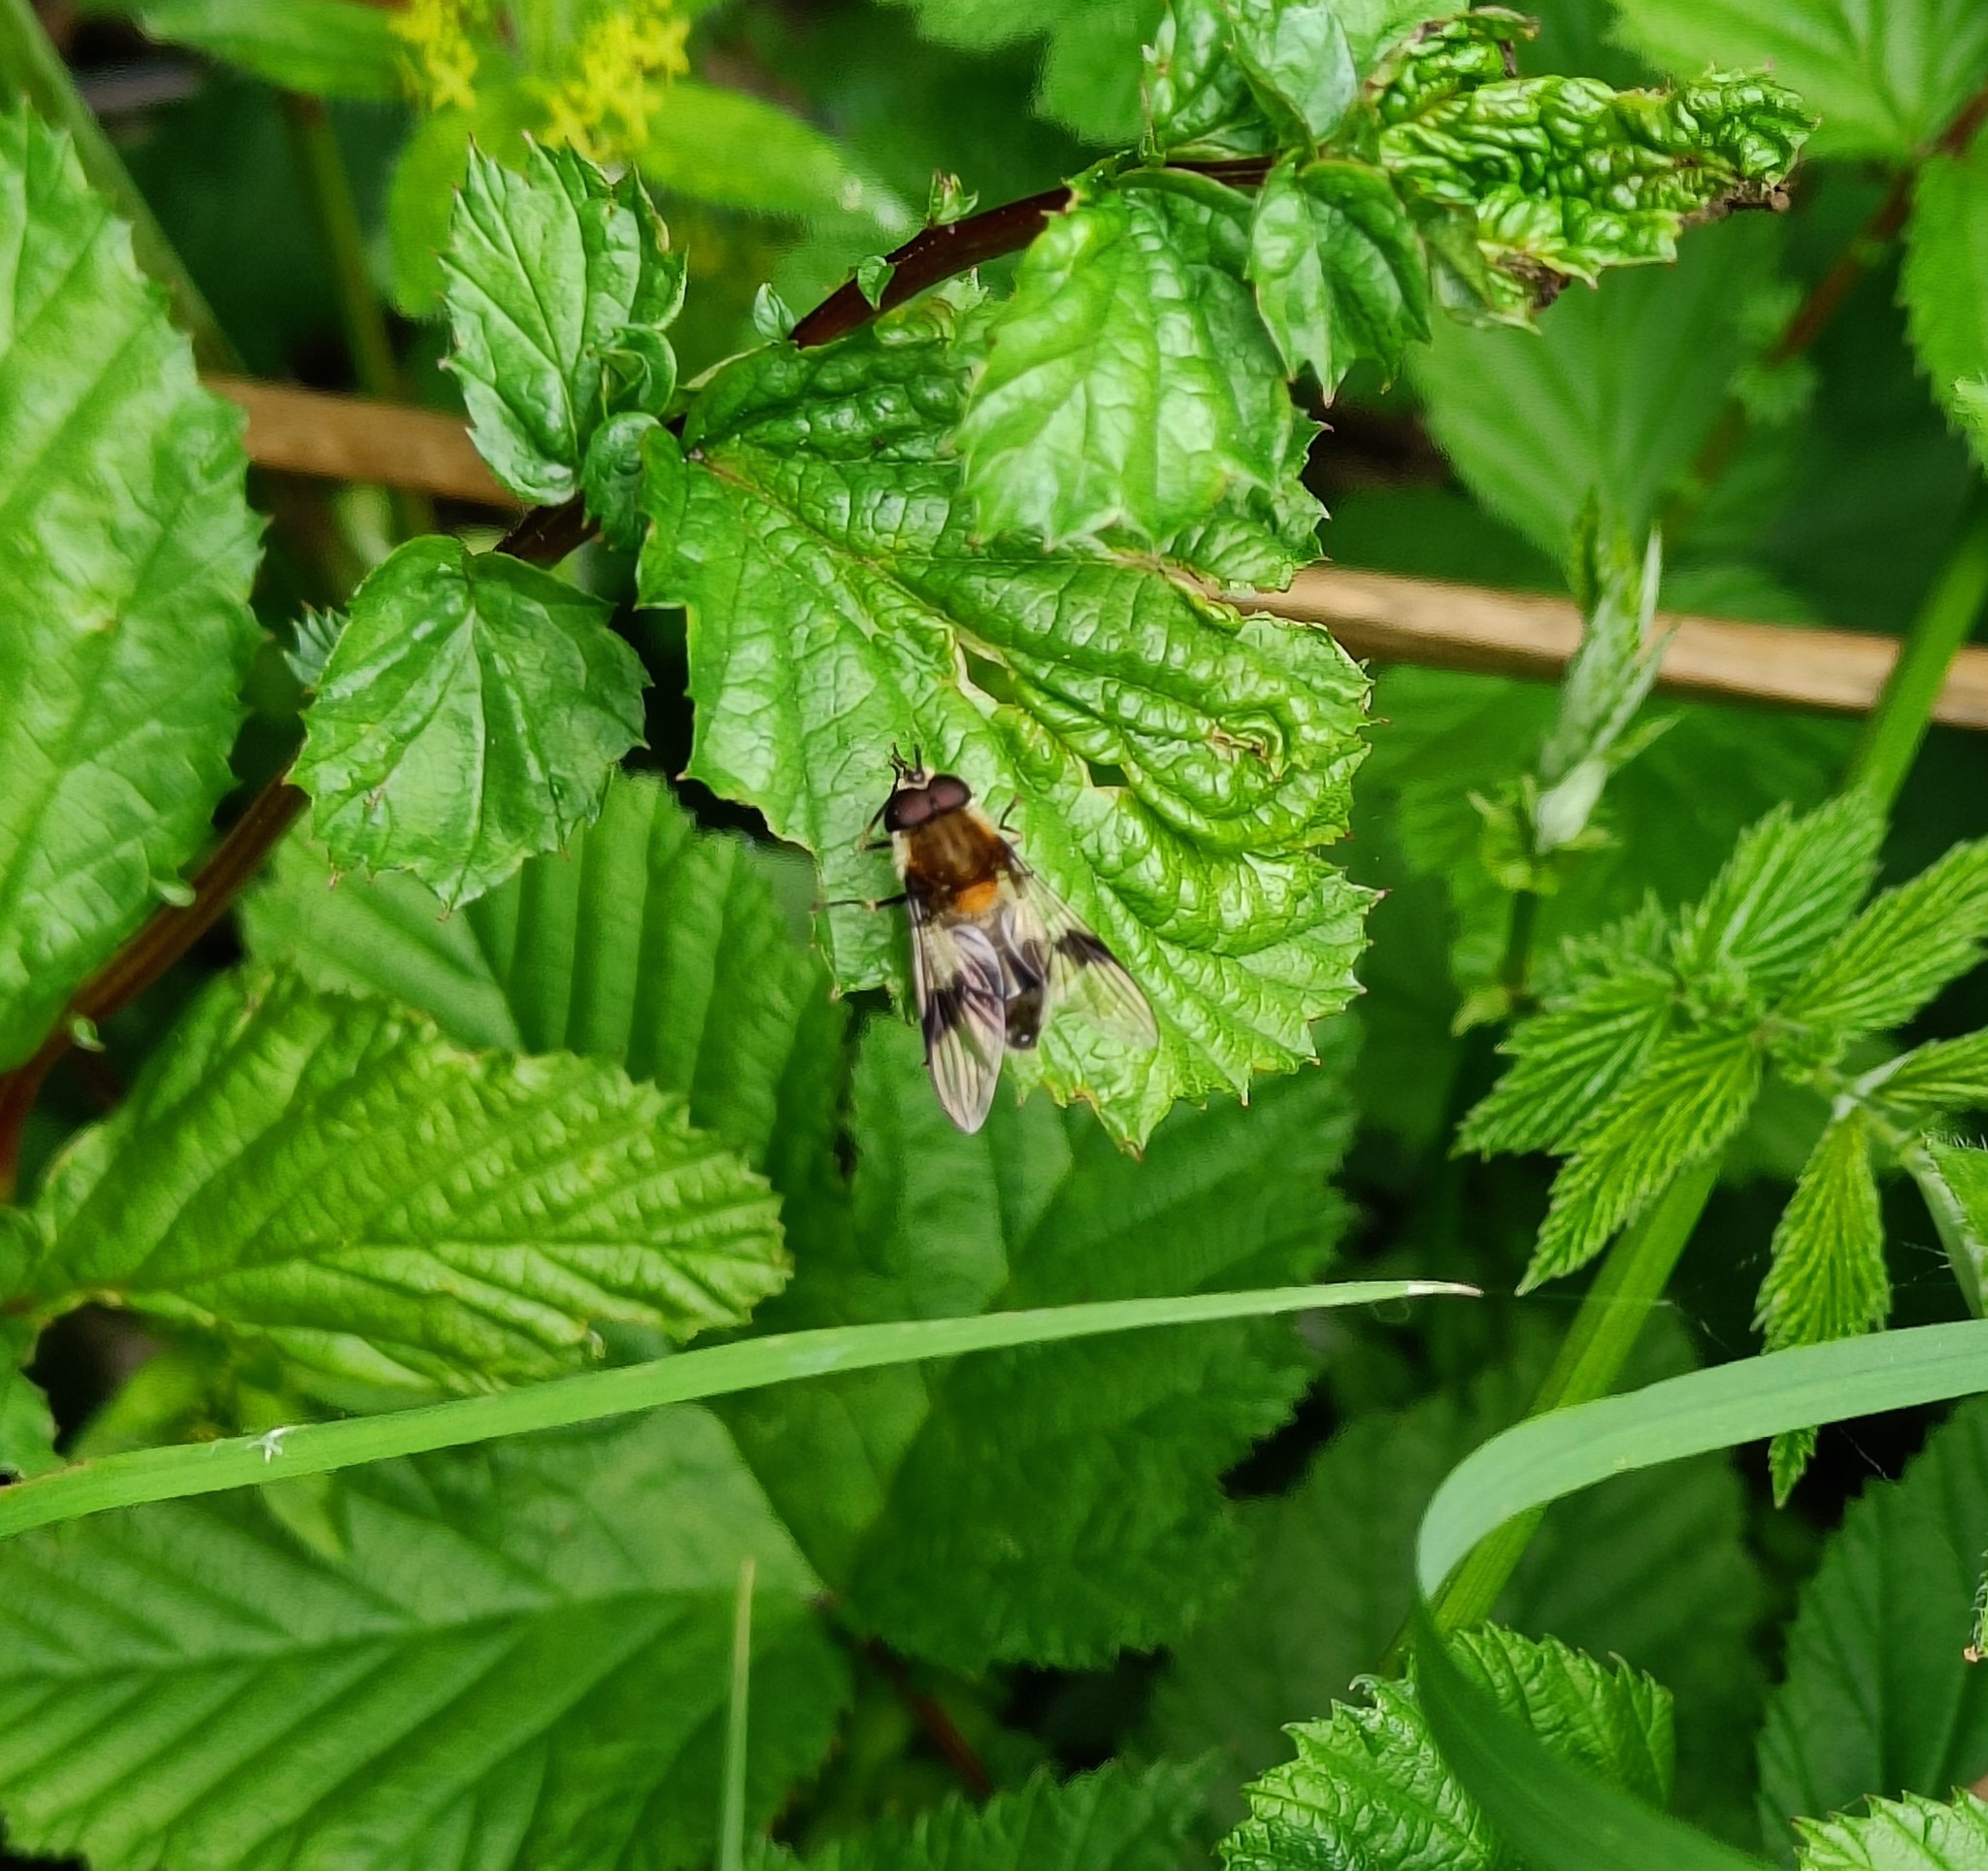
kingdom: Animalia
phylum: Arthropoda
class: Insecta
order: Diptera
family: Syrphidae
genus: Leucozona
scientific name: Leucozona lucorum
